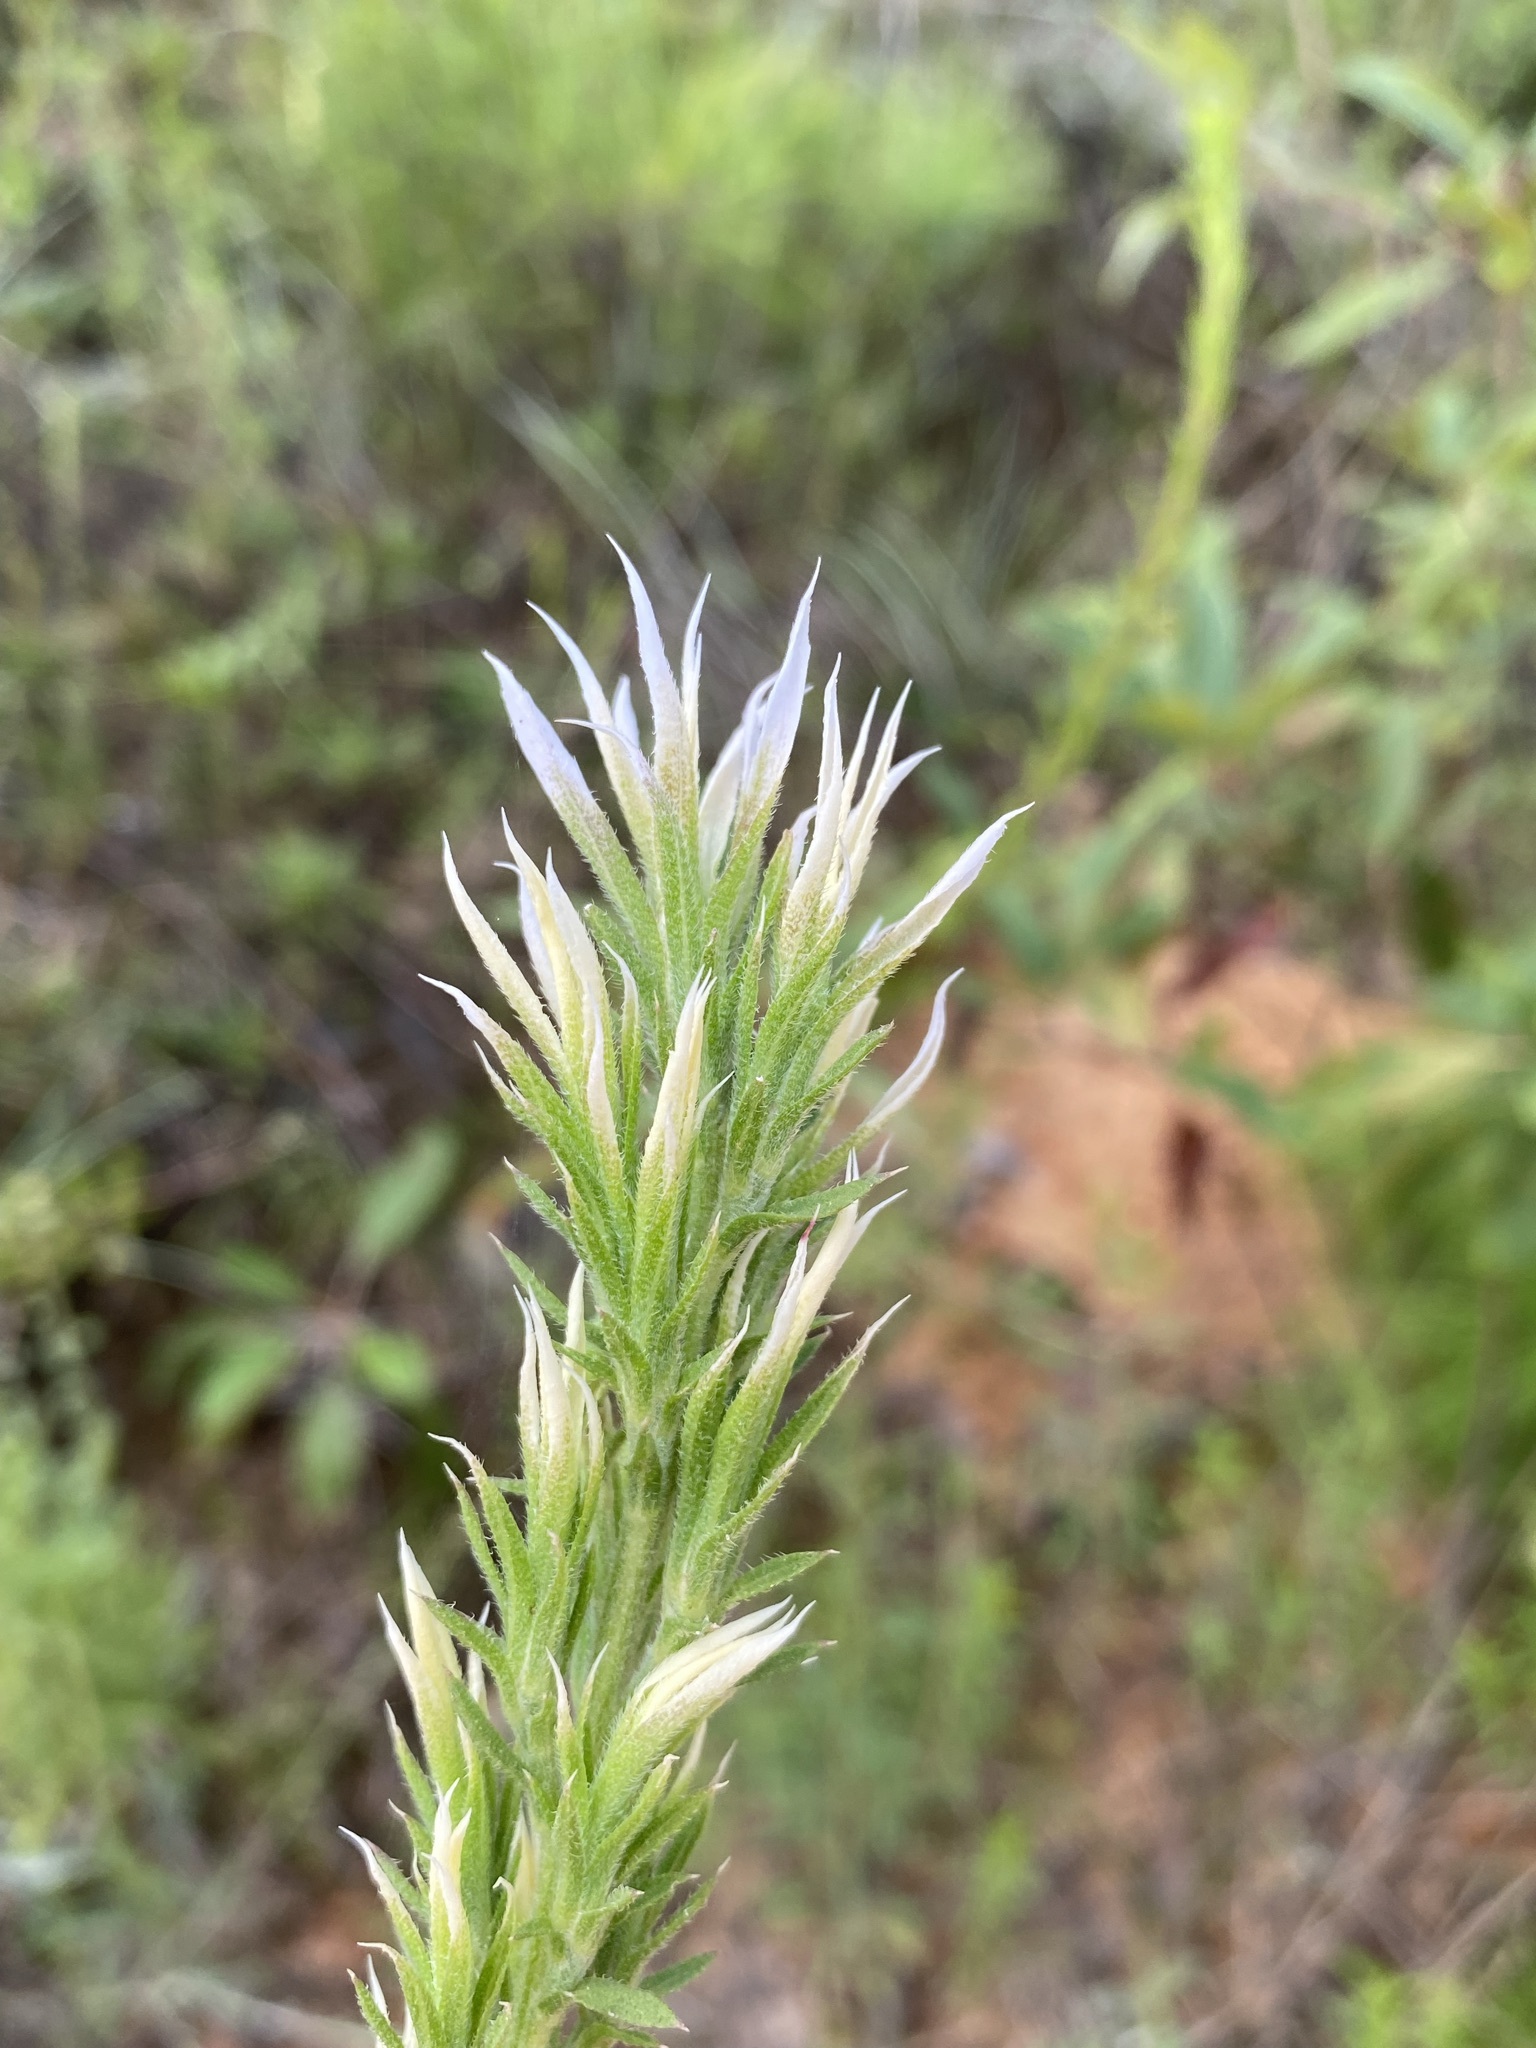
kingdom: Plantae
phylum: Tracheophyta
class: Magnoliopsida
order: Asterales
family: Asteraceae
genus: Liatris
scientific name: Liatris elegans
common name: Pinkscale gayfeather
